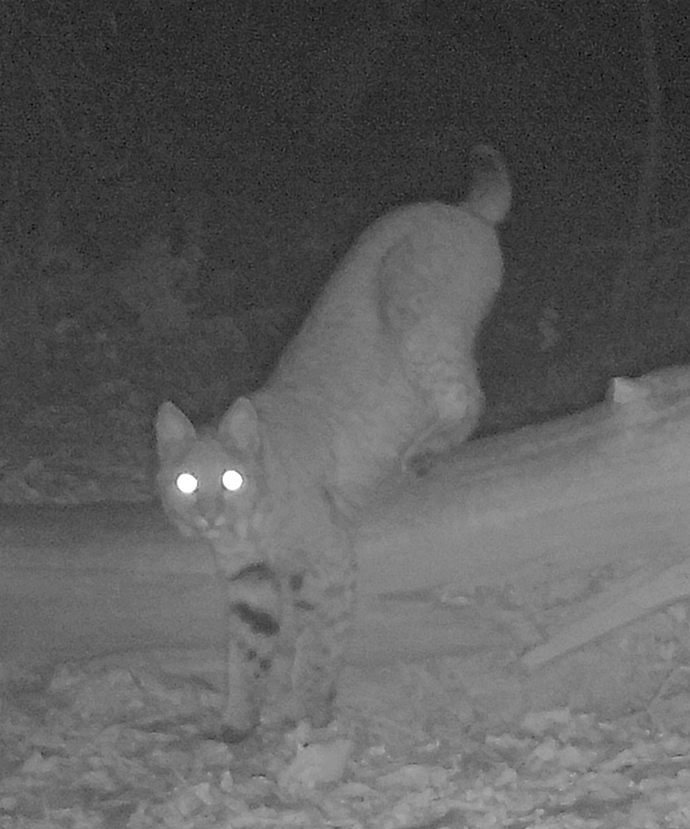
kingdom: Animalia
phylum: Chordata
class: Mammalia
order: Carnivora
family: Felidae
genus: Lynx
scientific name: Lynx rufus
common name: Bobcat
